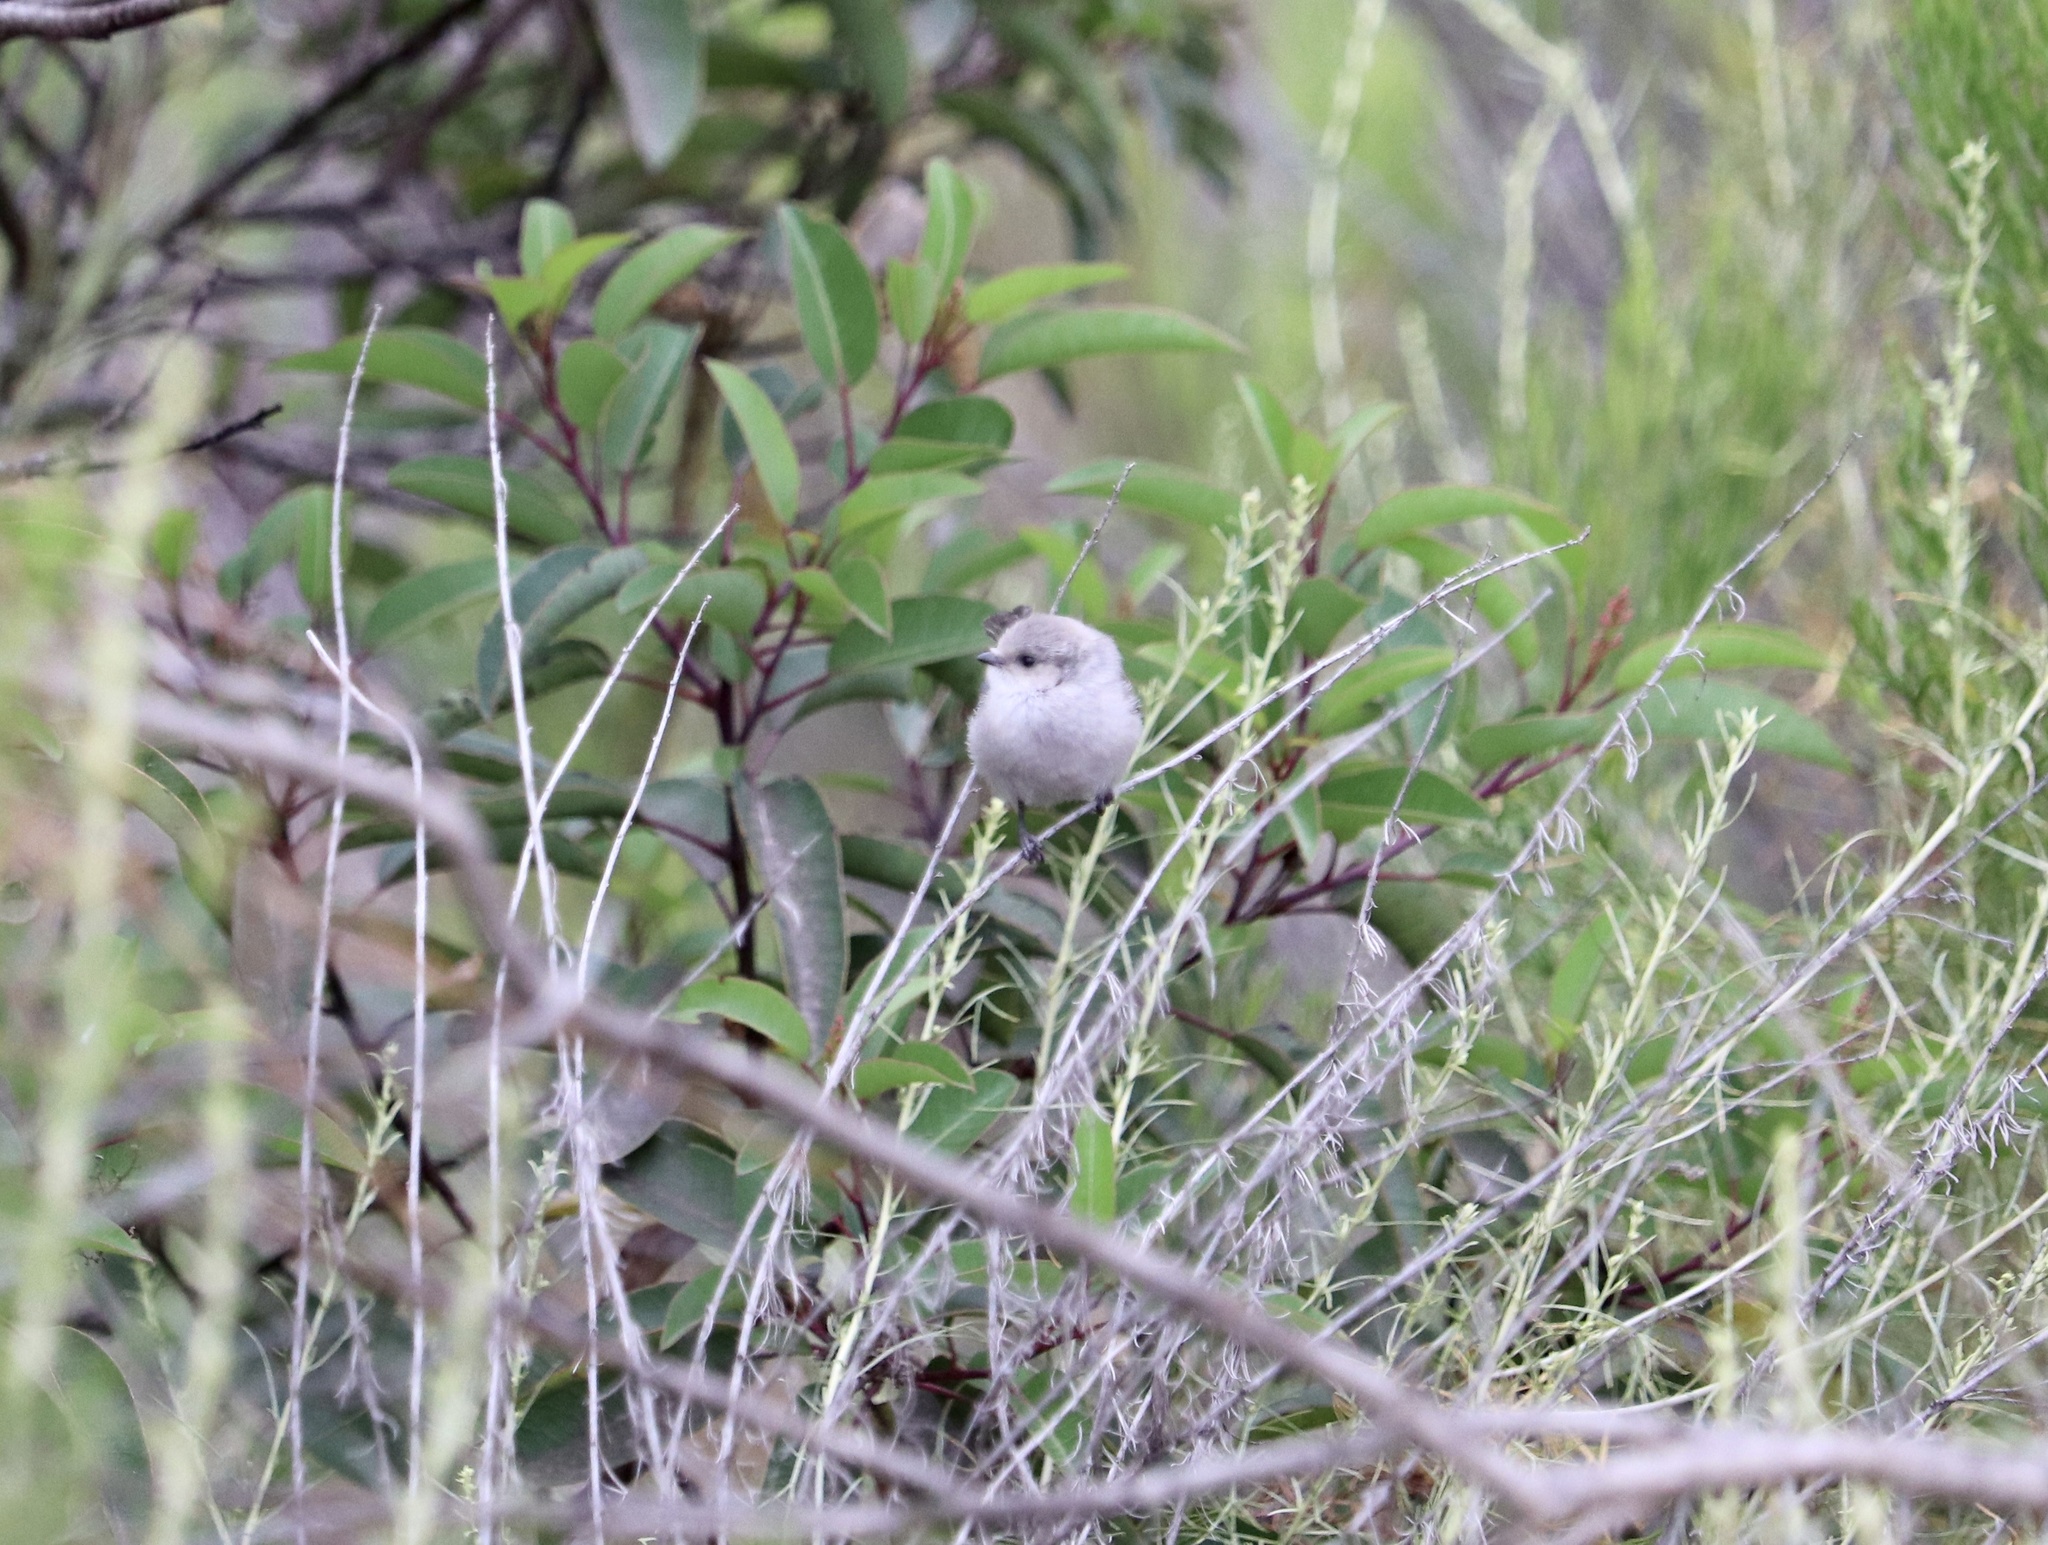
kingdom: Animalia
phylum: Chordata
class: Aves
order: Passeriformes
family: Aegithalidae
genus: Psaltriparus
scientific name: Psaltriparus minimus
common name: American bushtit
